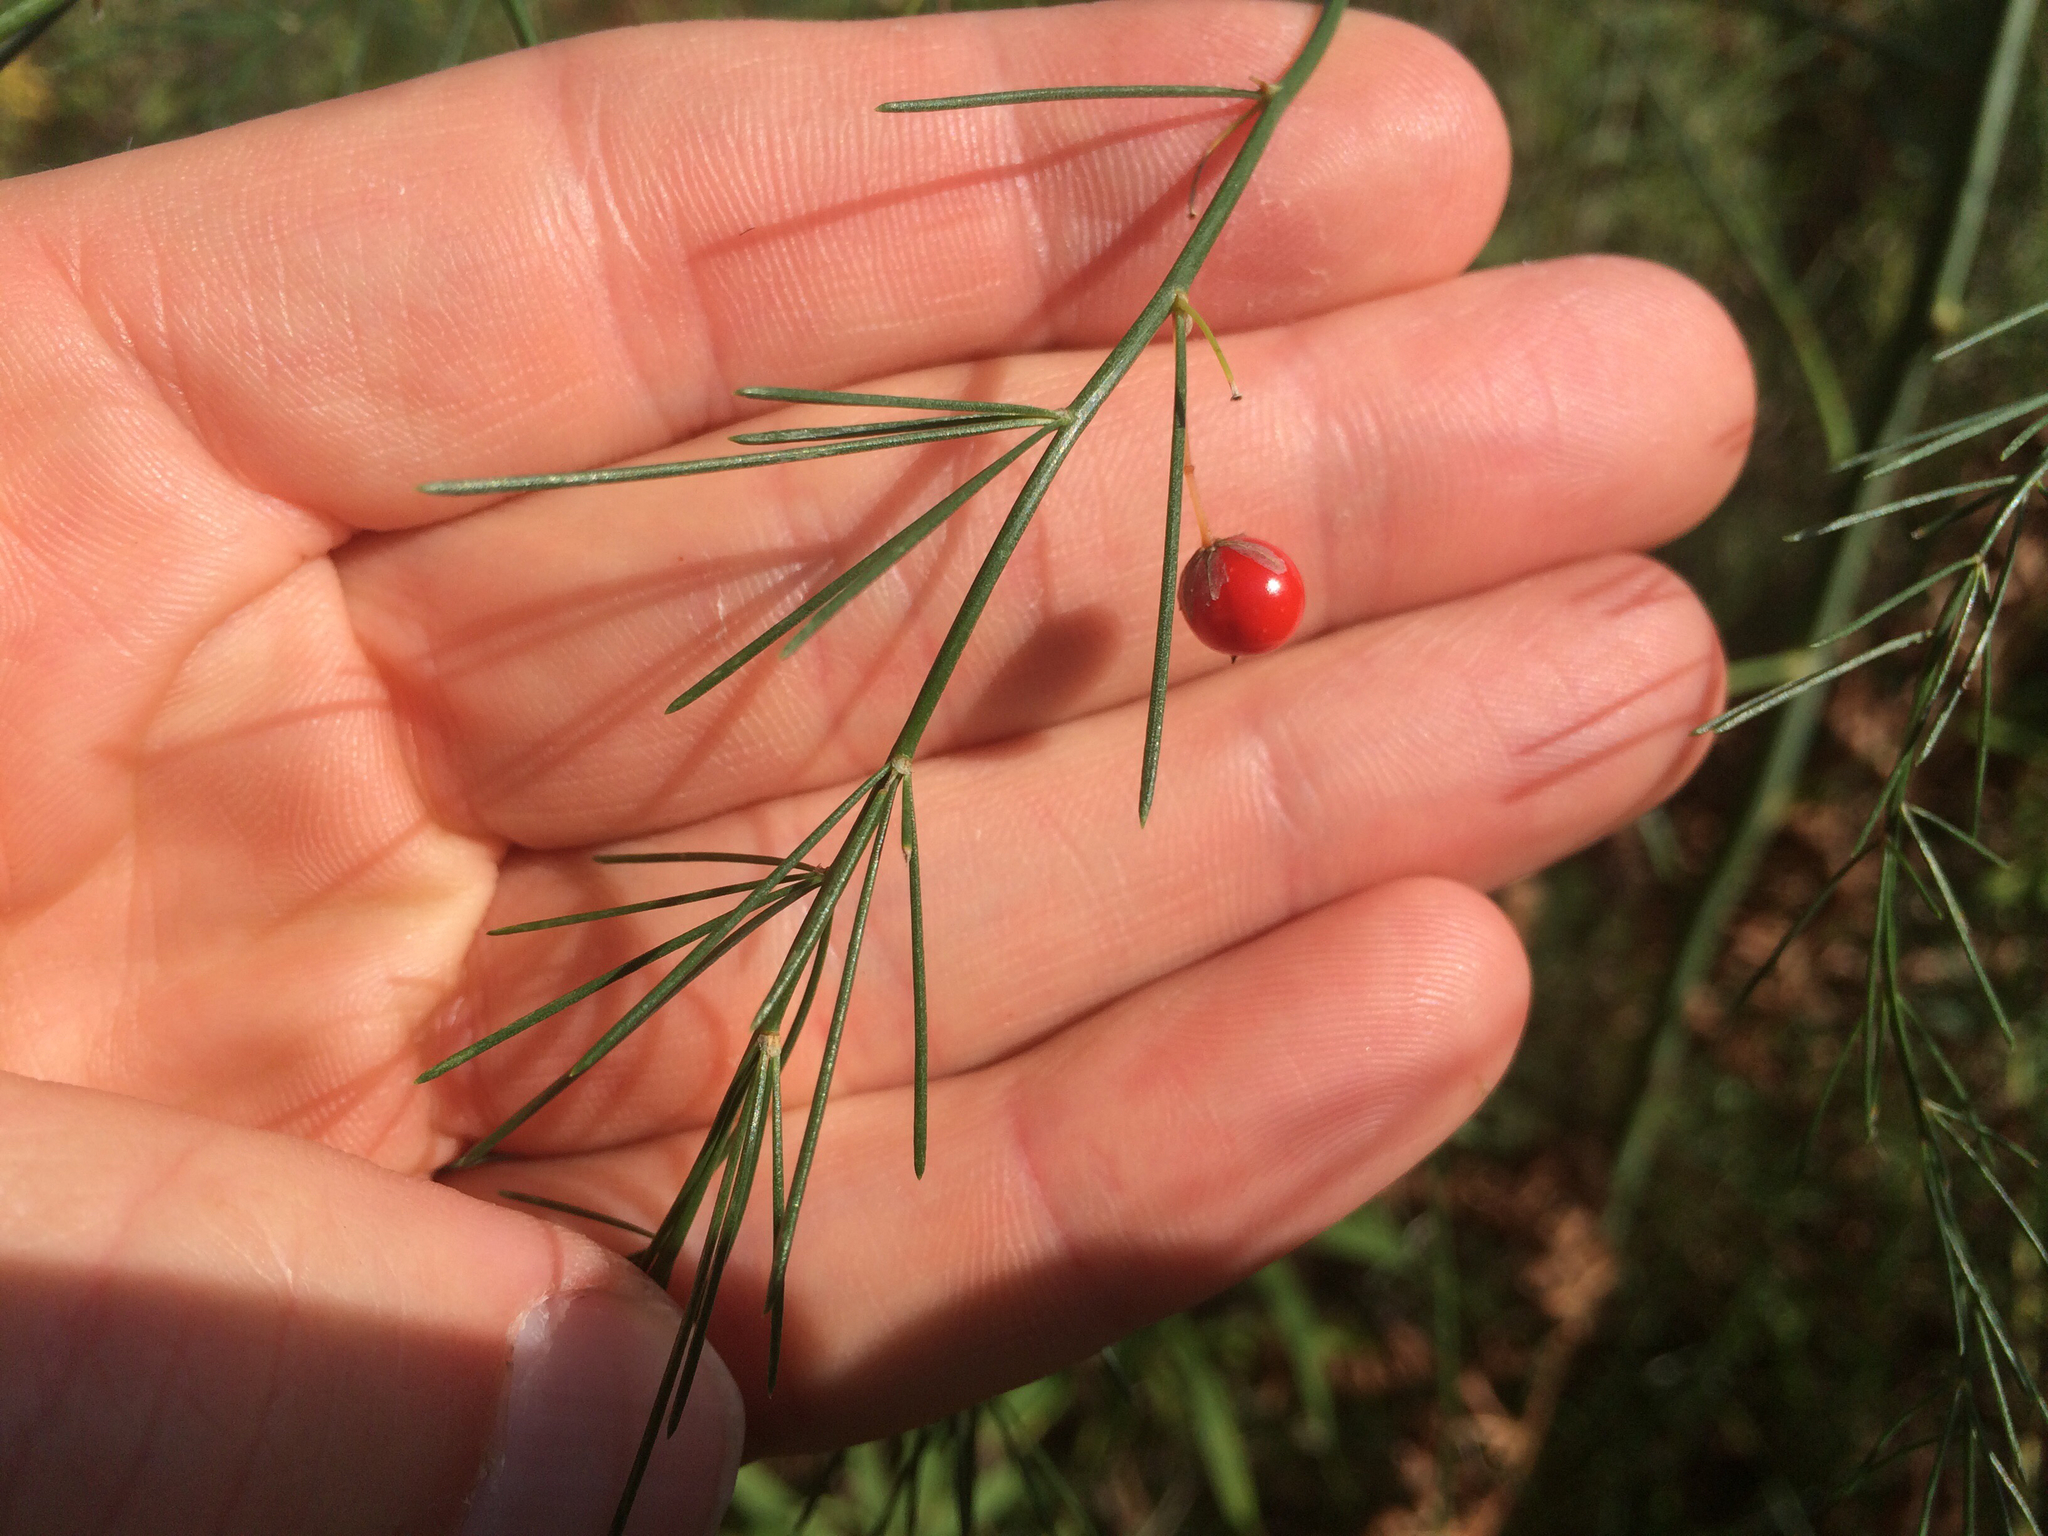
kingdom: Plantae
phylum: Tracheophyta
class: Liliopsida
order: Asparagales
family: Asparagaceae
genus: Asparagus
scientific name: Asparagus officinalis
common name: Garden asparagus
